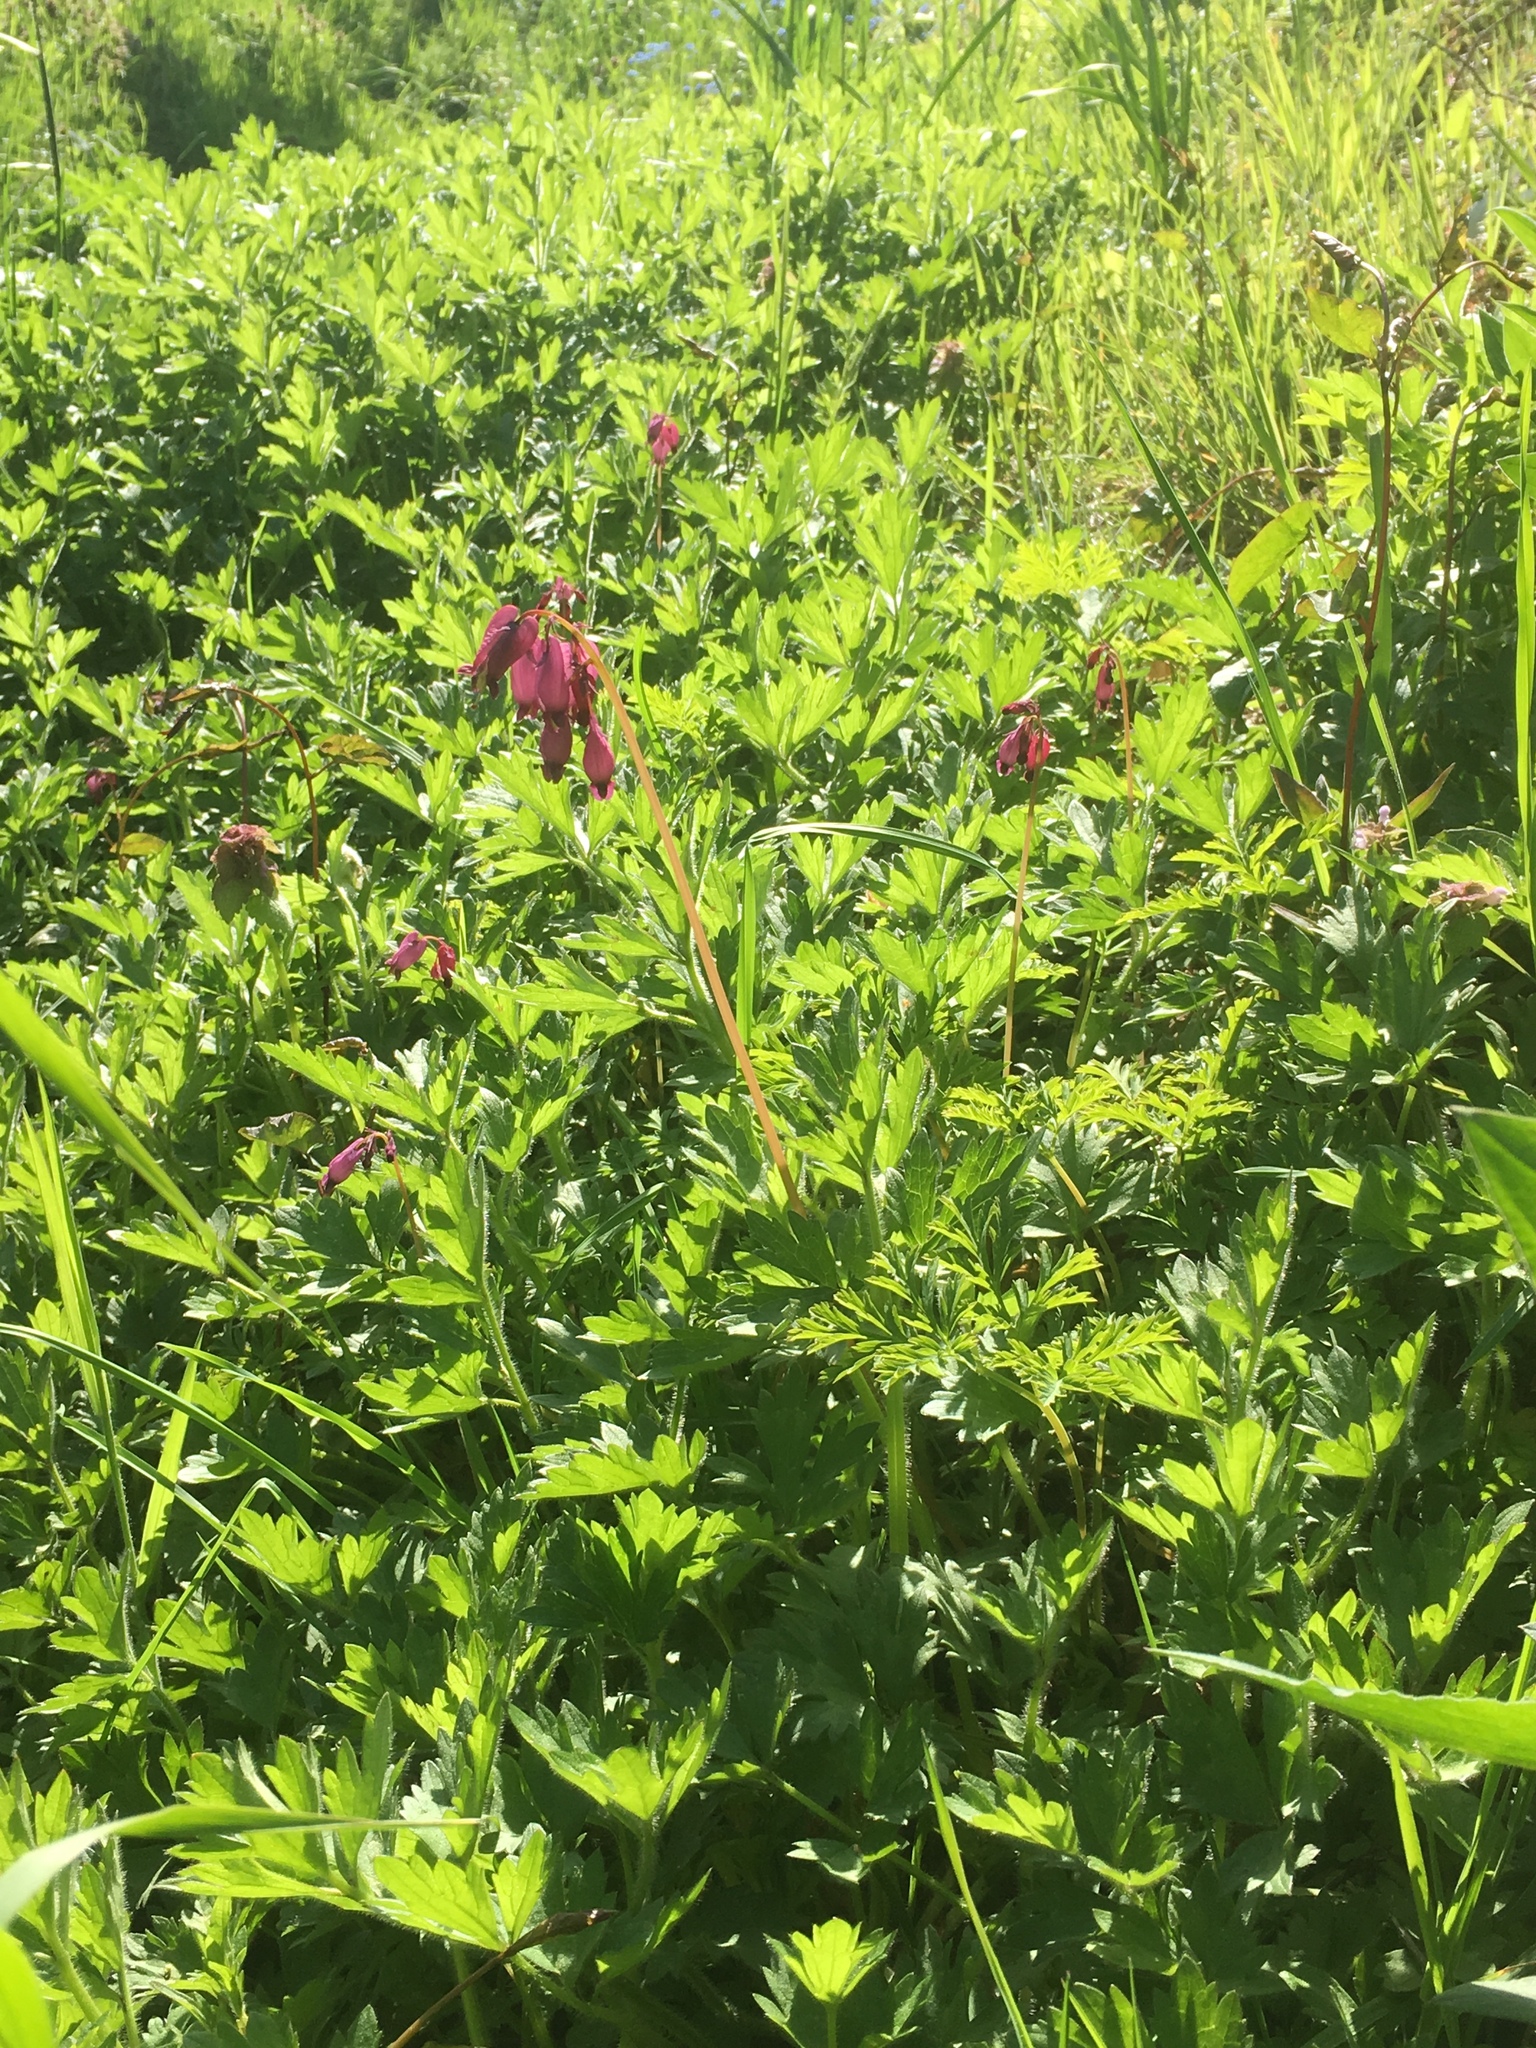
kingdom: Plantae
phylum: Tracheophyta
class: Magnoliopsida
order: Ranunculales
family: Papaveraceae
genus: Dicentra
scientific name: Dicentra formosa
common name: Bleeding-heart
